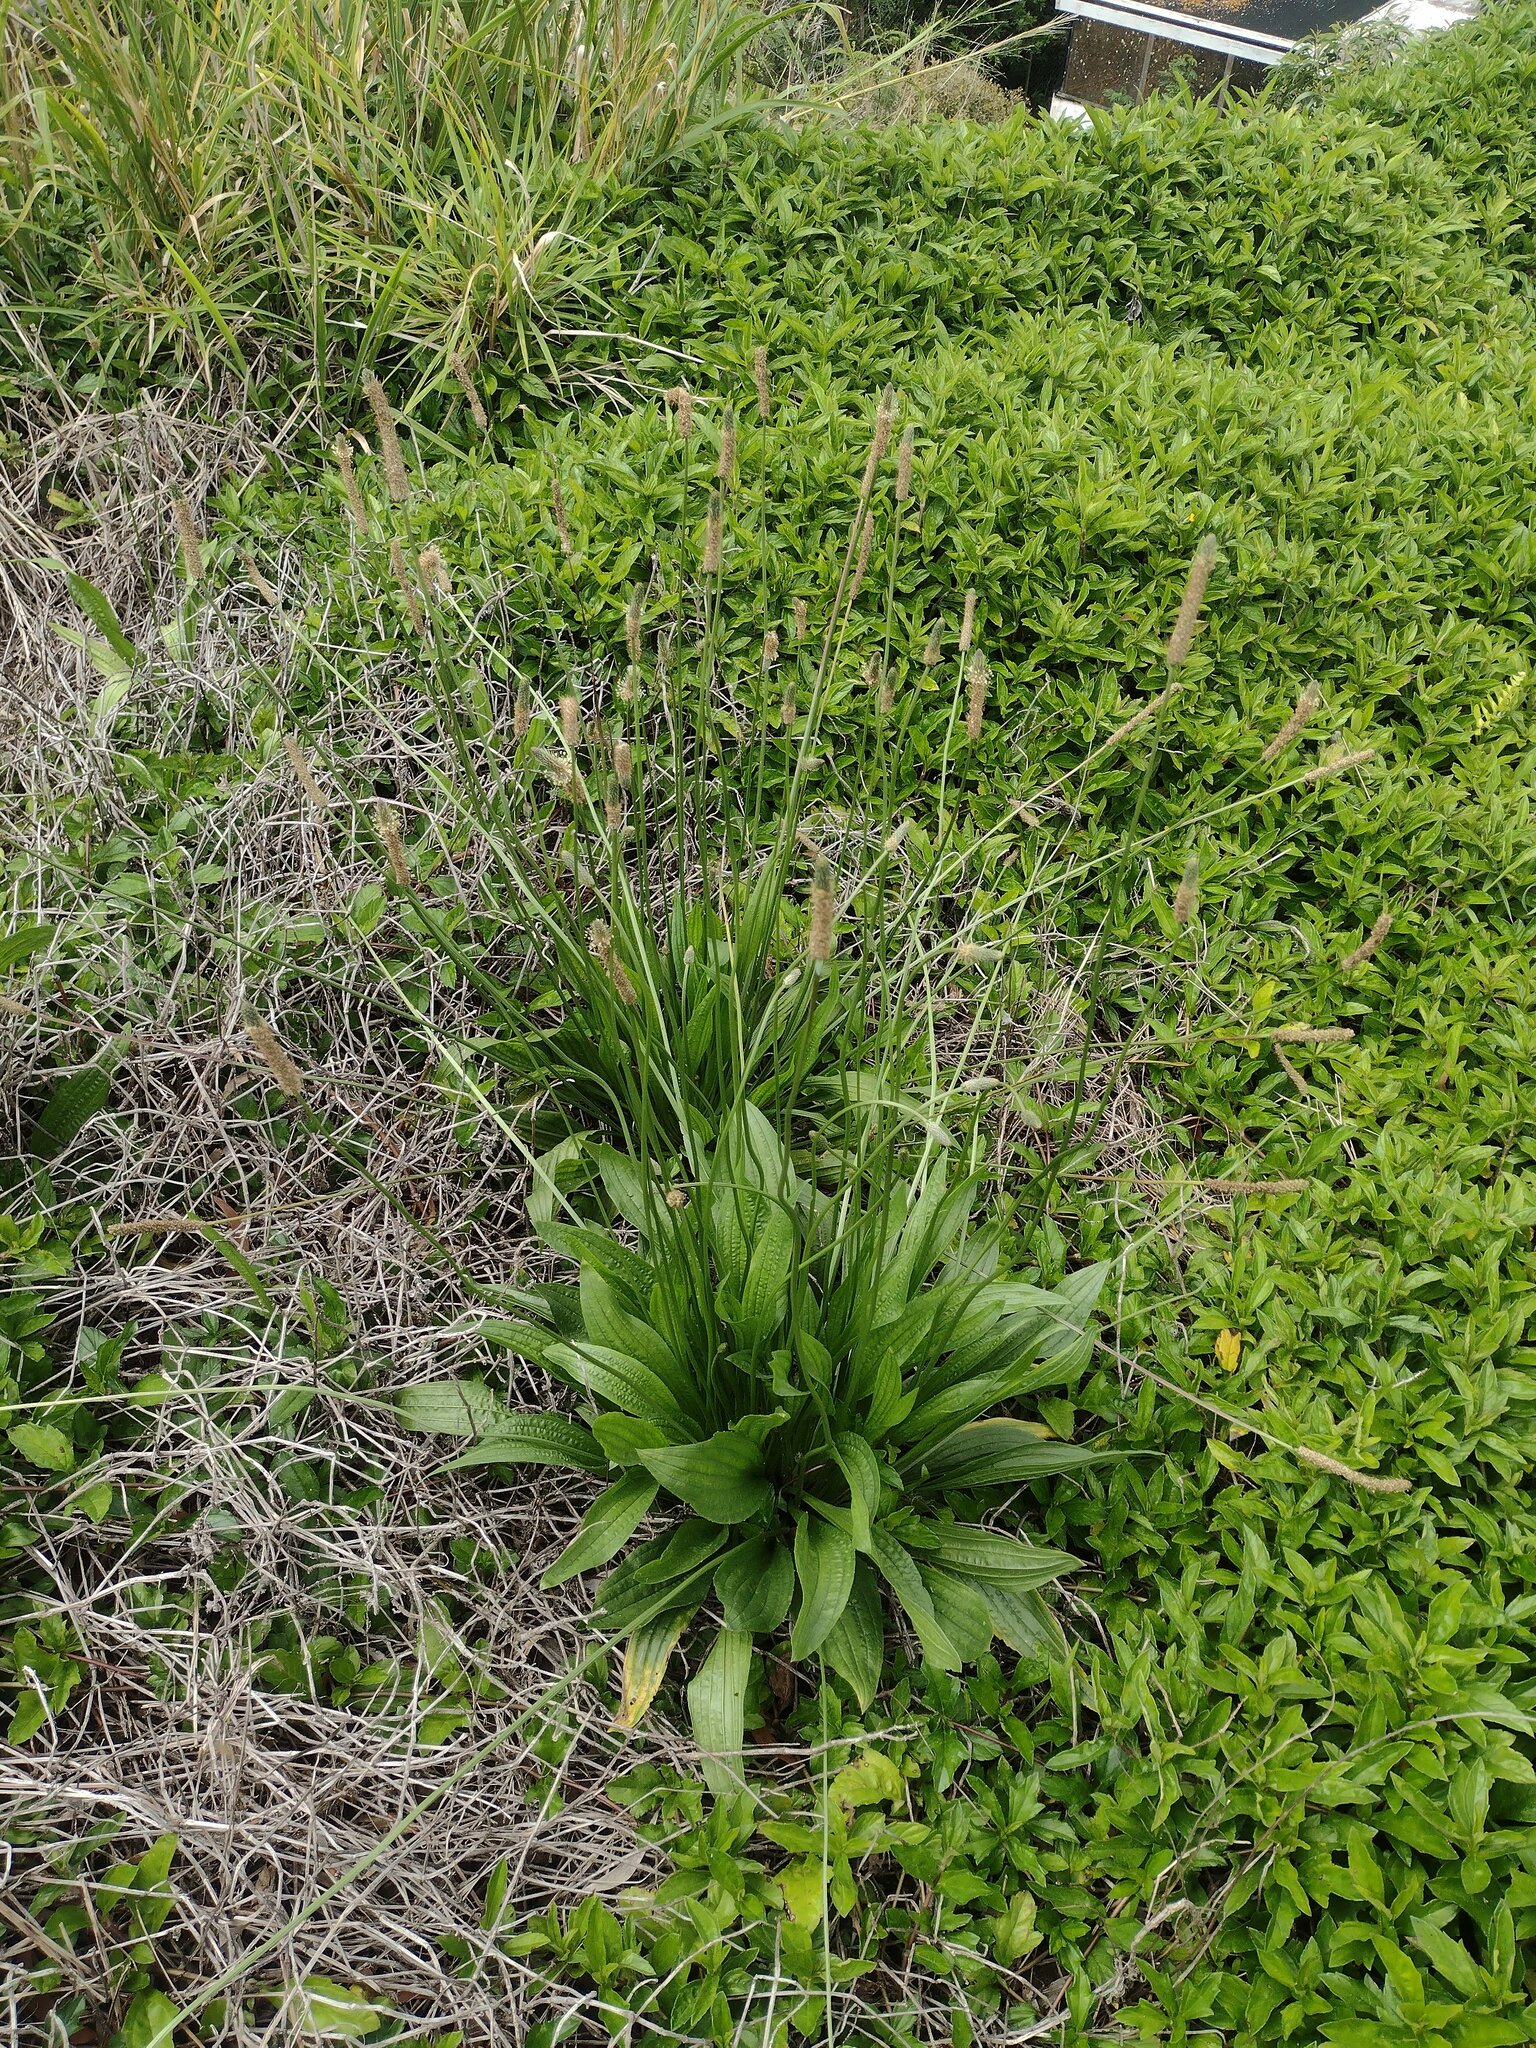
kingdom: Plantae
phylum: Tracheophyta
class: Magnoliopsida
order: Lamiales
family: Plantaginaceae
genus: Plantago
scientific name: Plantago lanceolata
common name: Ribwort plantain
